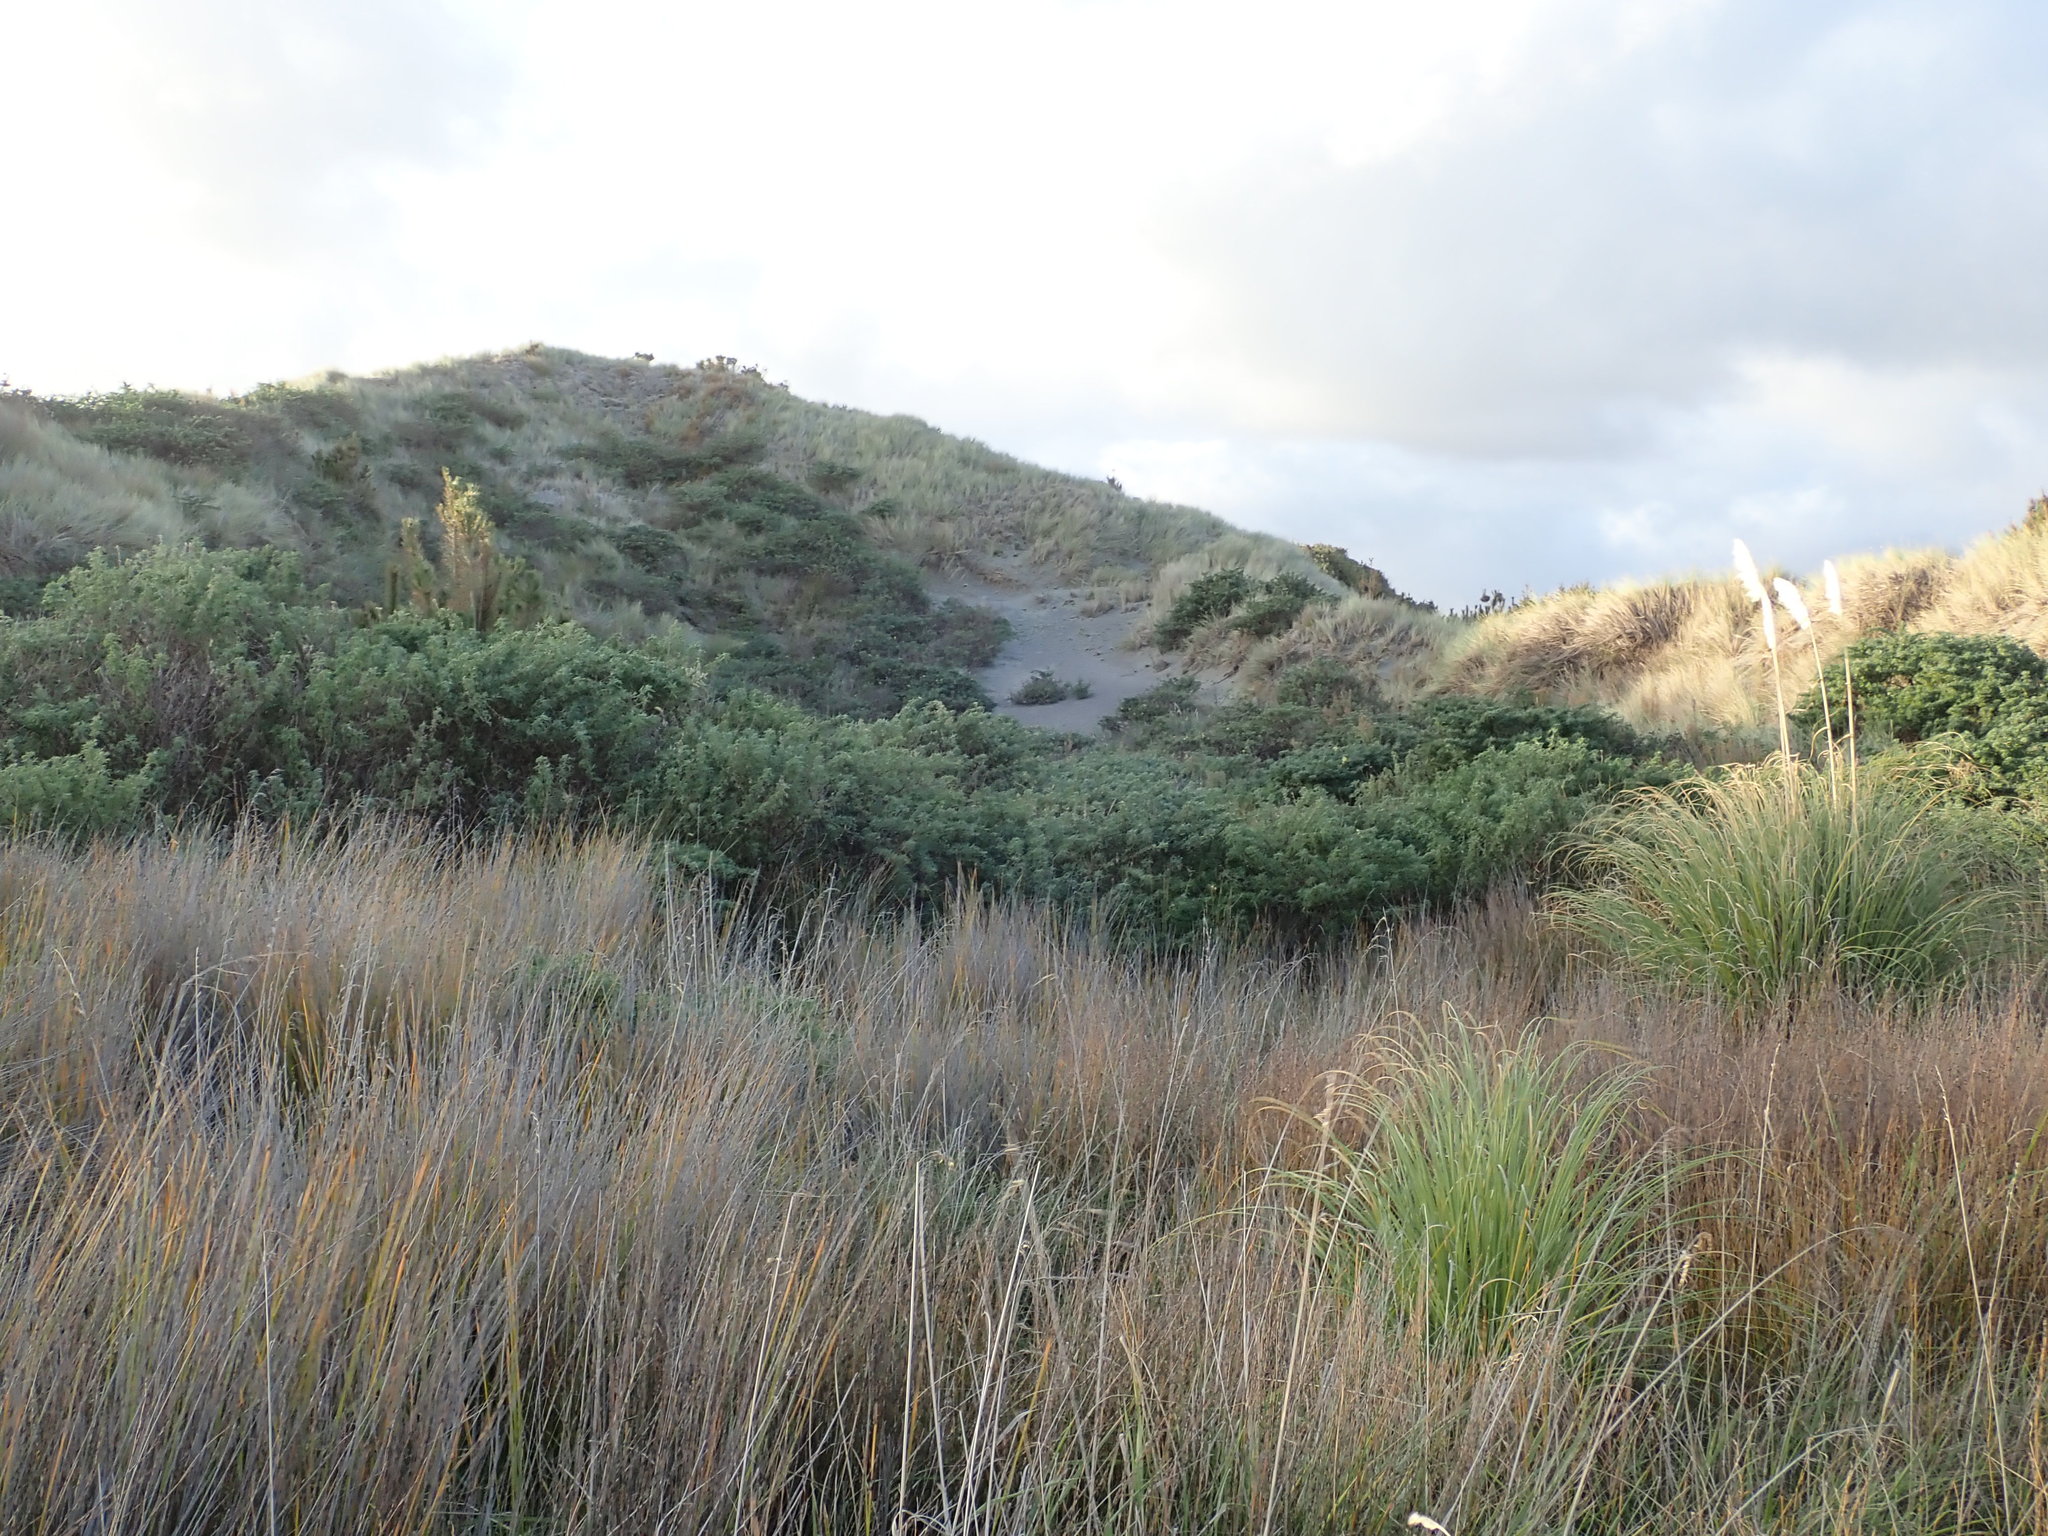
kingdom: Plantae
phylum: Tracheophyta
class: Magnoliopsida
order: Fabales
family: Fabaceae
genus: Lupinus
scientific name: Lupinus arboreus
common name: Yellow bush lupine
